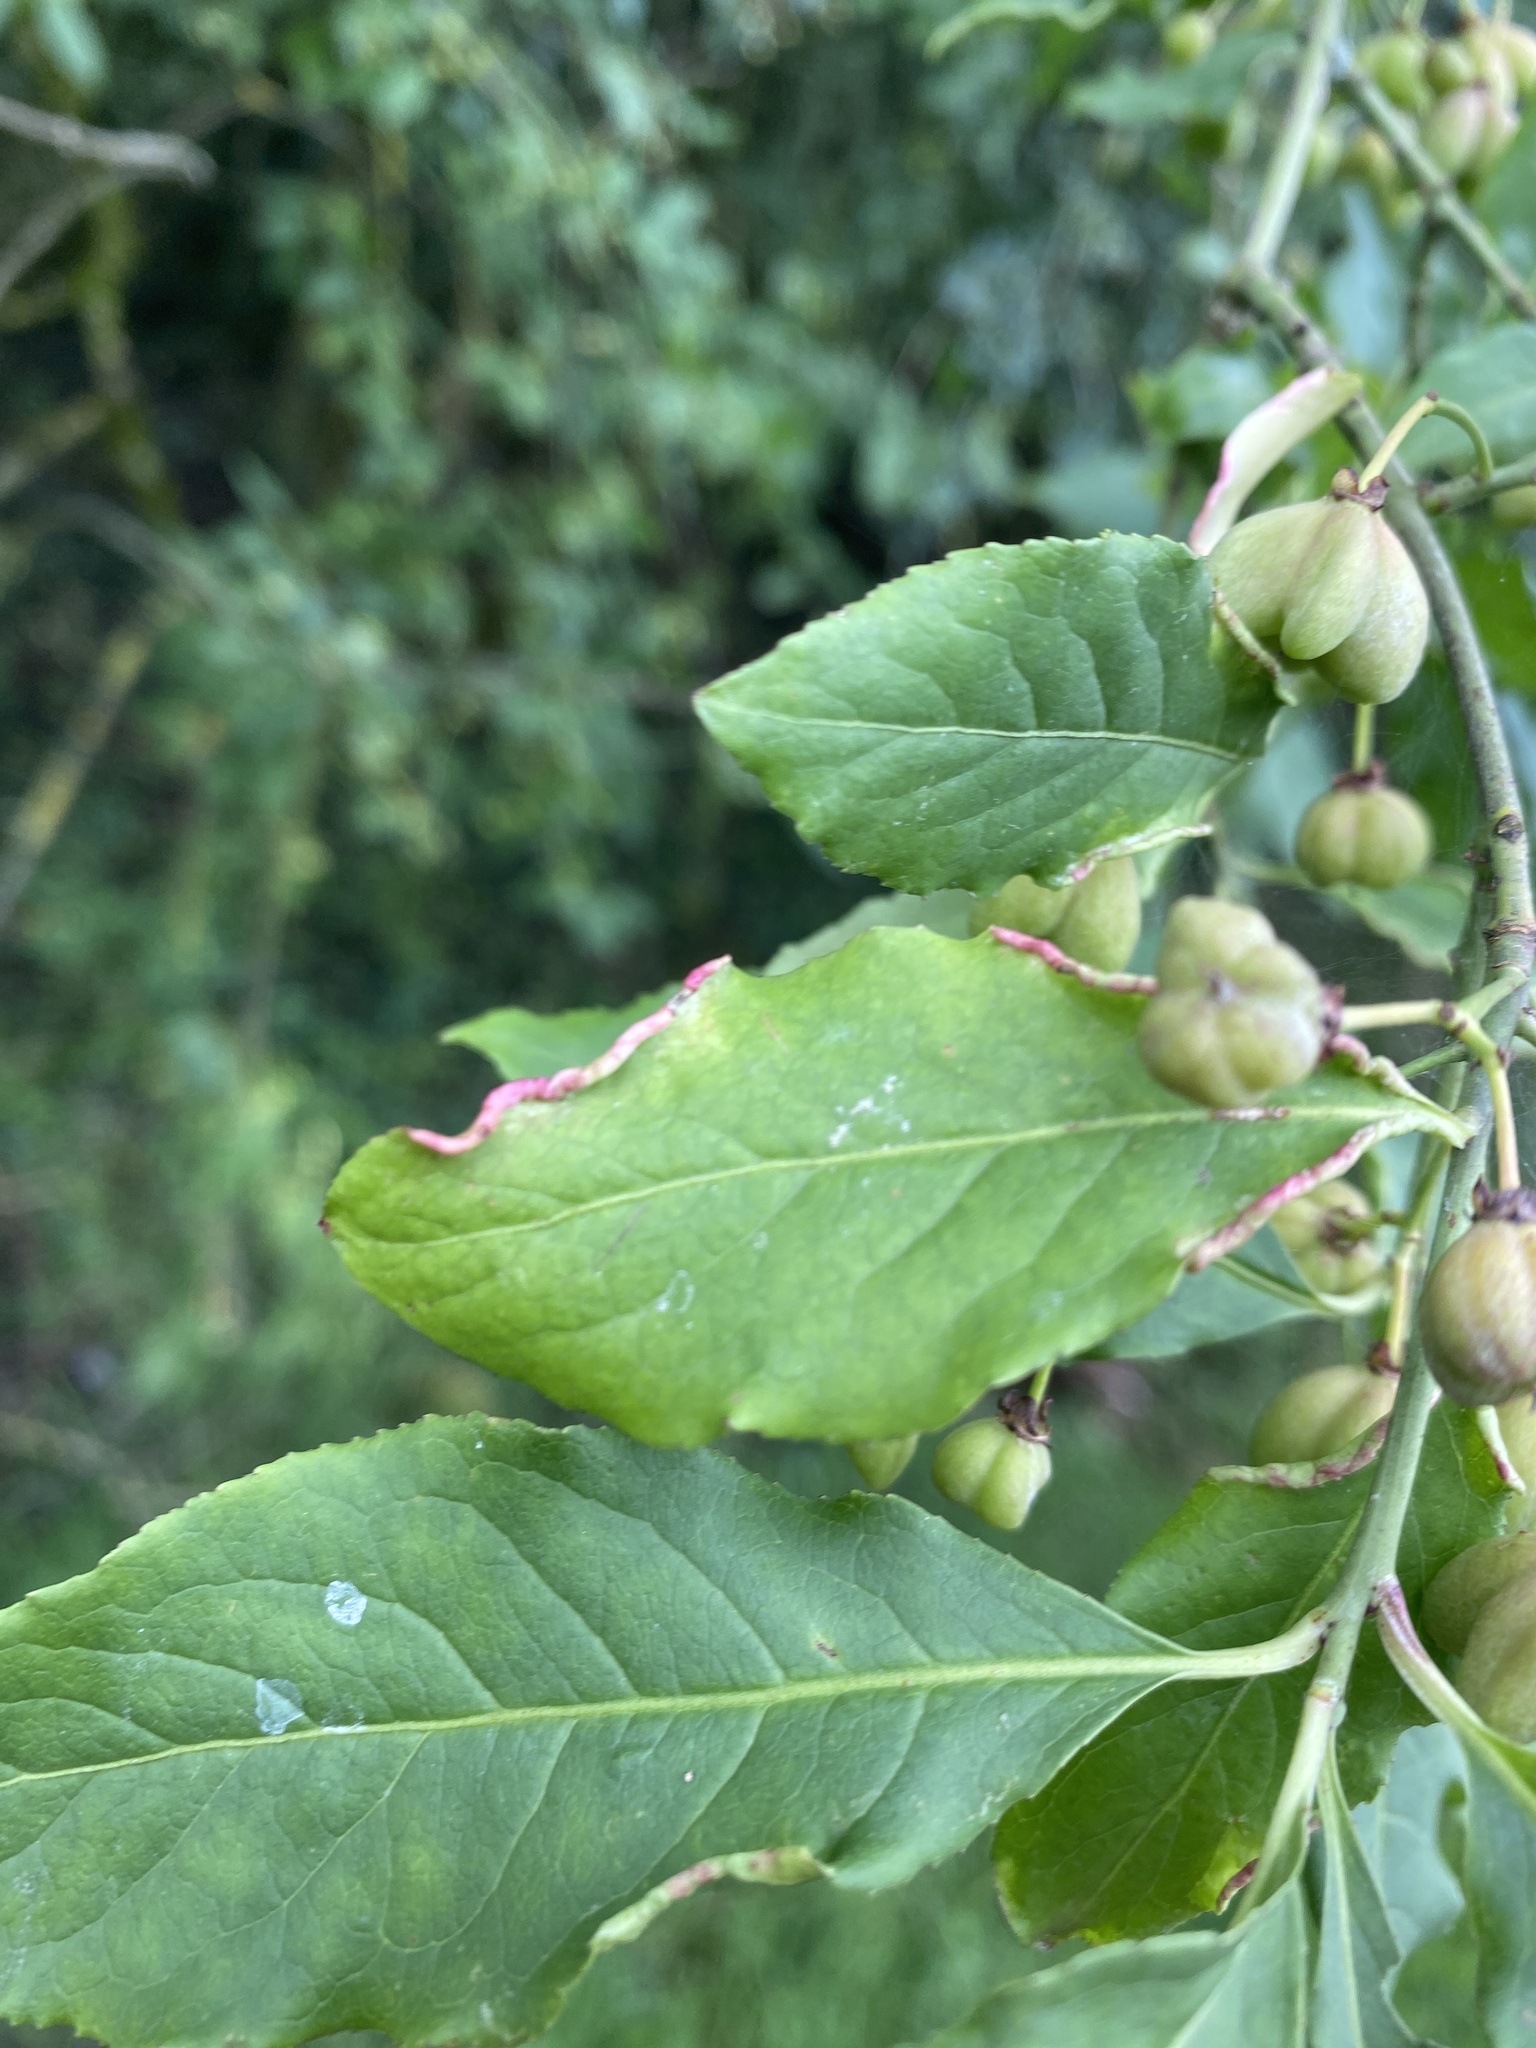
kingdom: Animalia
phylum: Arthropoda
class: Arachnida
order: Trombidiformes
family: Eriophyidae
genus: Stenacis
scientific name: Stenacis evonymi
